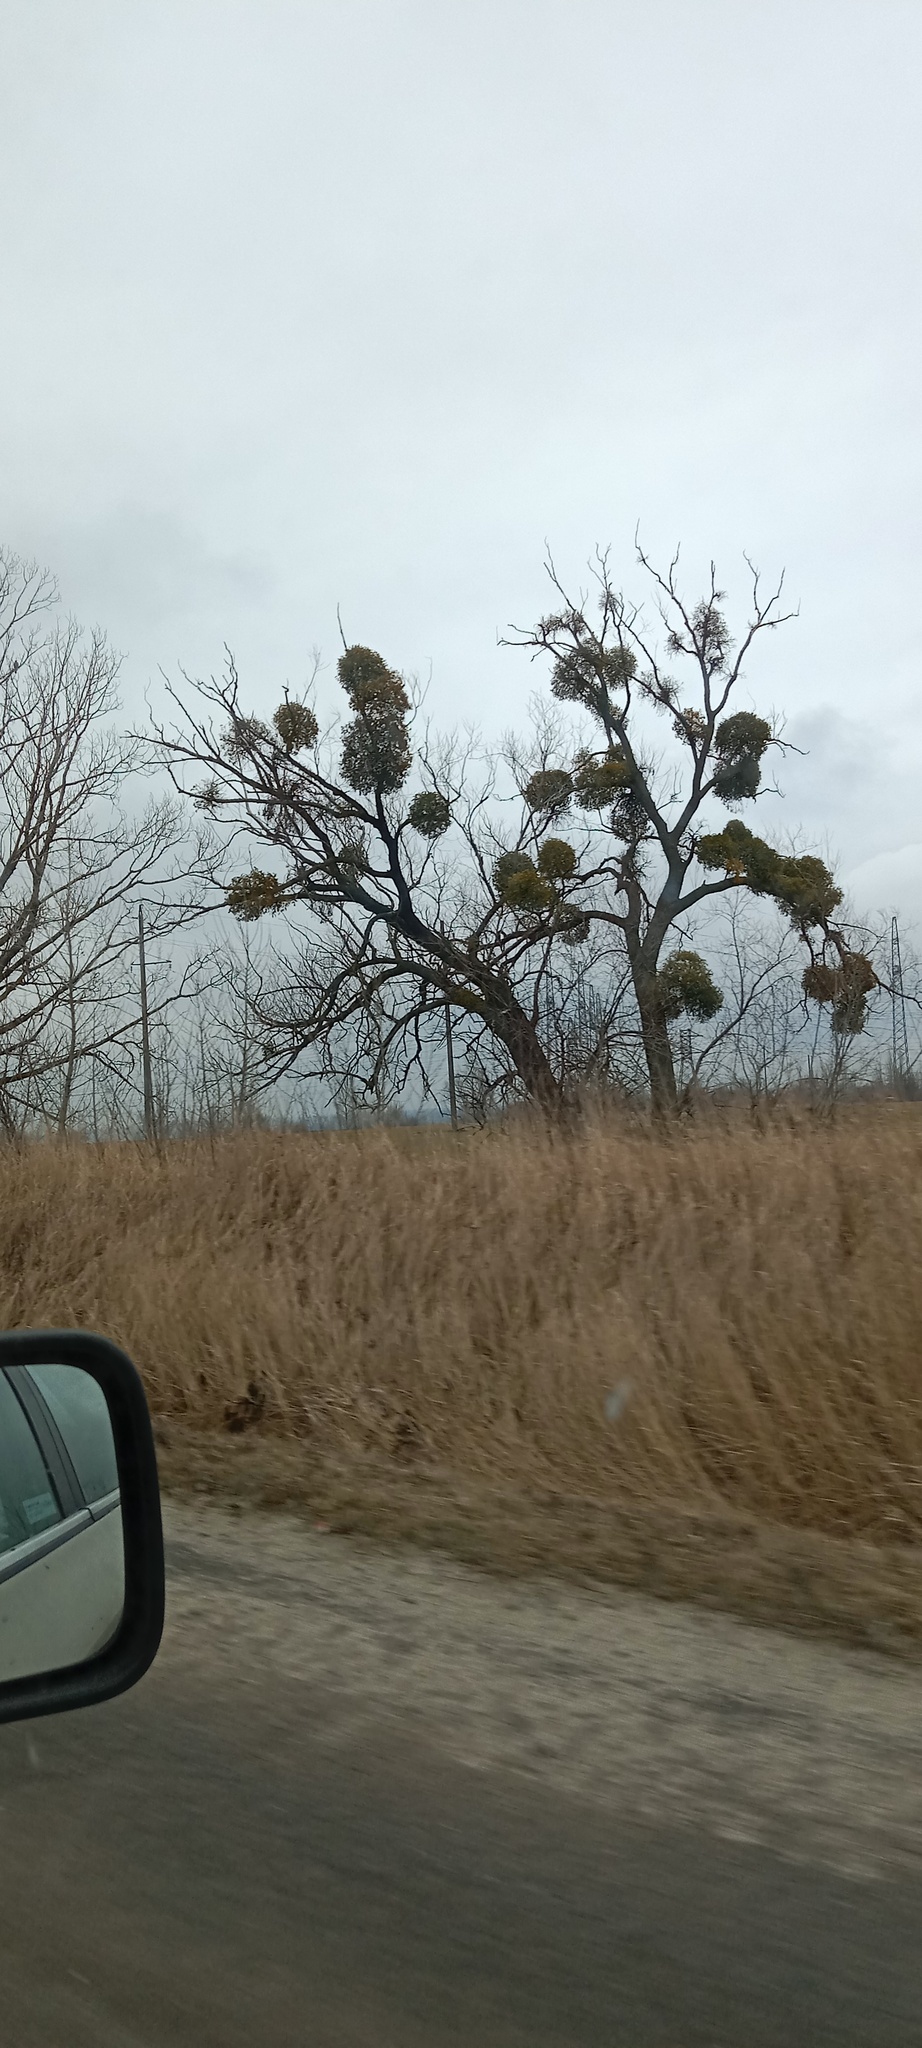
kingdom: Plantae
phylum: Tracheophyta
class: Magnoliopsida
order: Santalales
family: Viscaceae
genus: Viscum
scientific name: Viscum album
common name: Mistletoe
